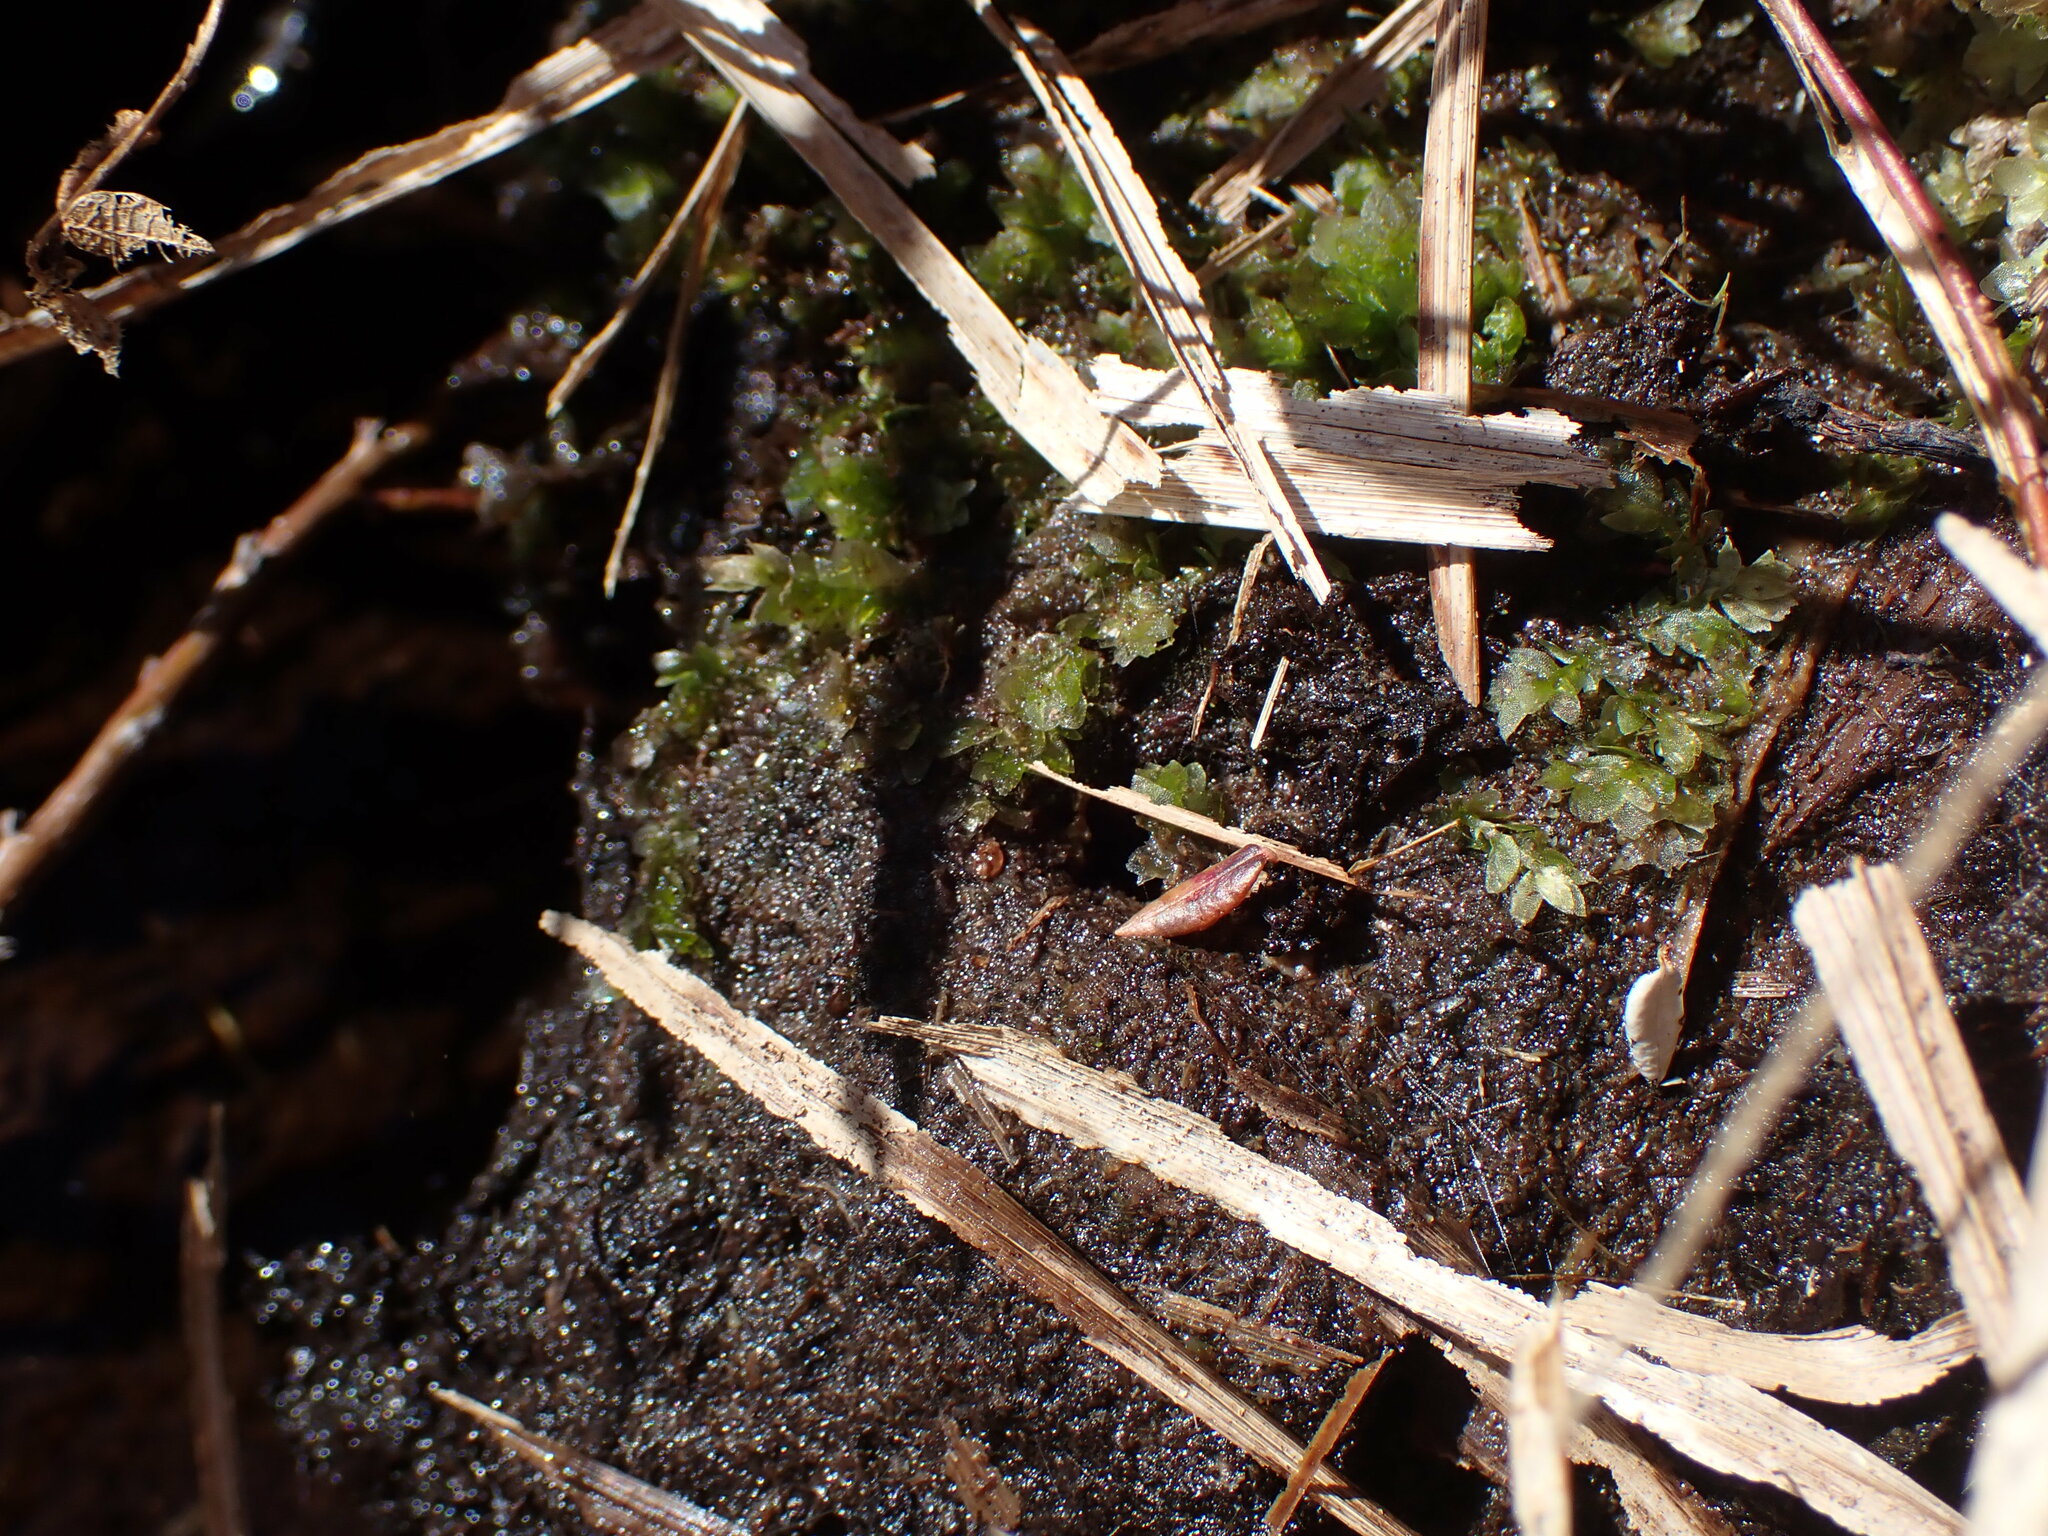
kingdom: Plantae
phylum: Bryophyta
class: Bryopsida
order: Hookeriales
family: Hookeriaceae
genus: Hookeria
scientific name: Hookeria lucens
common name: Shining hookeria
